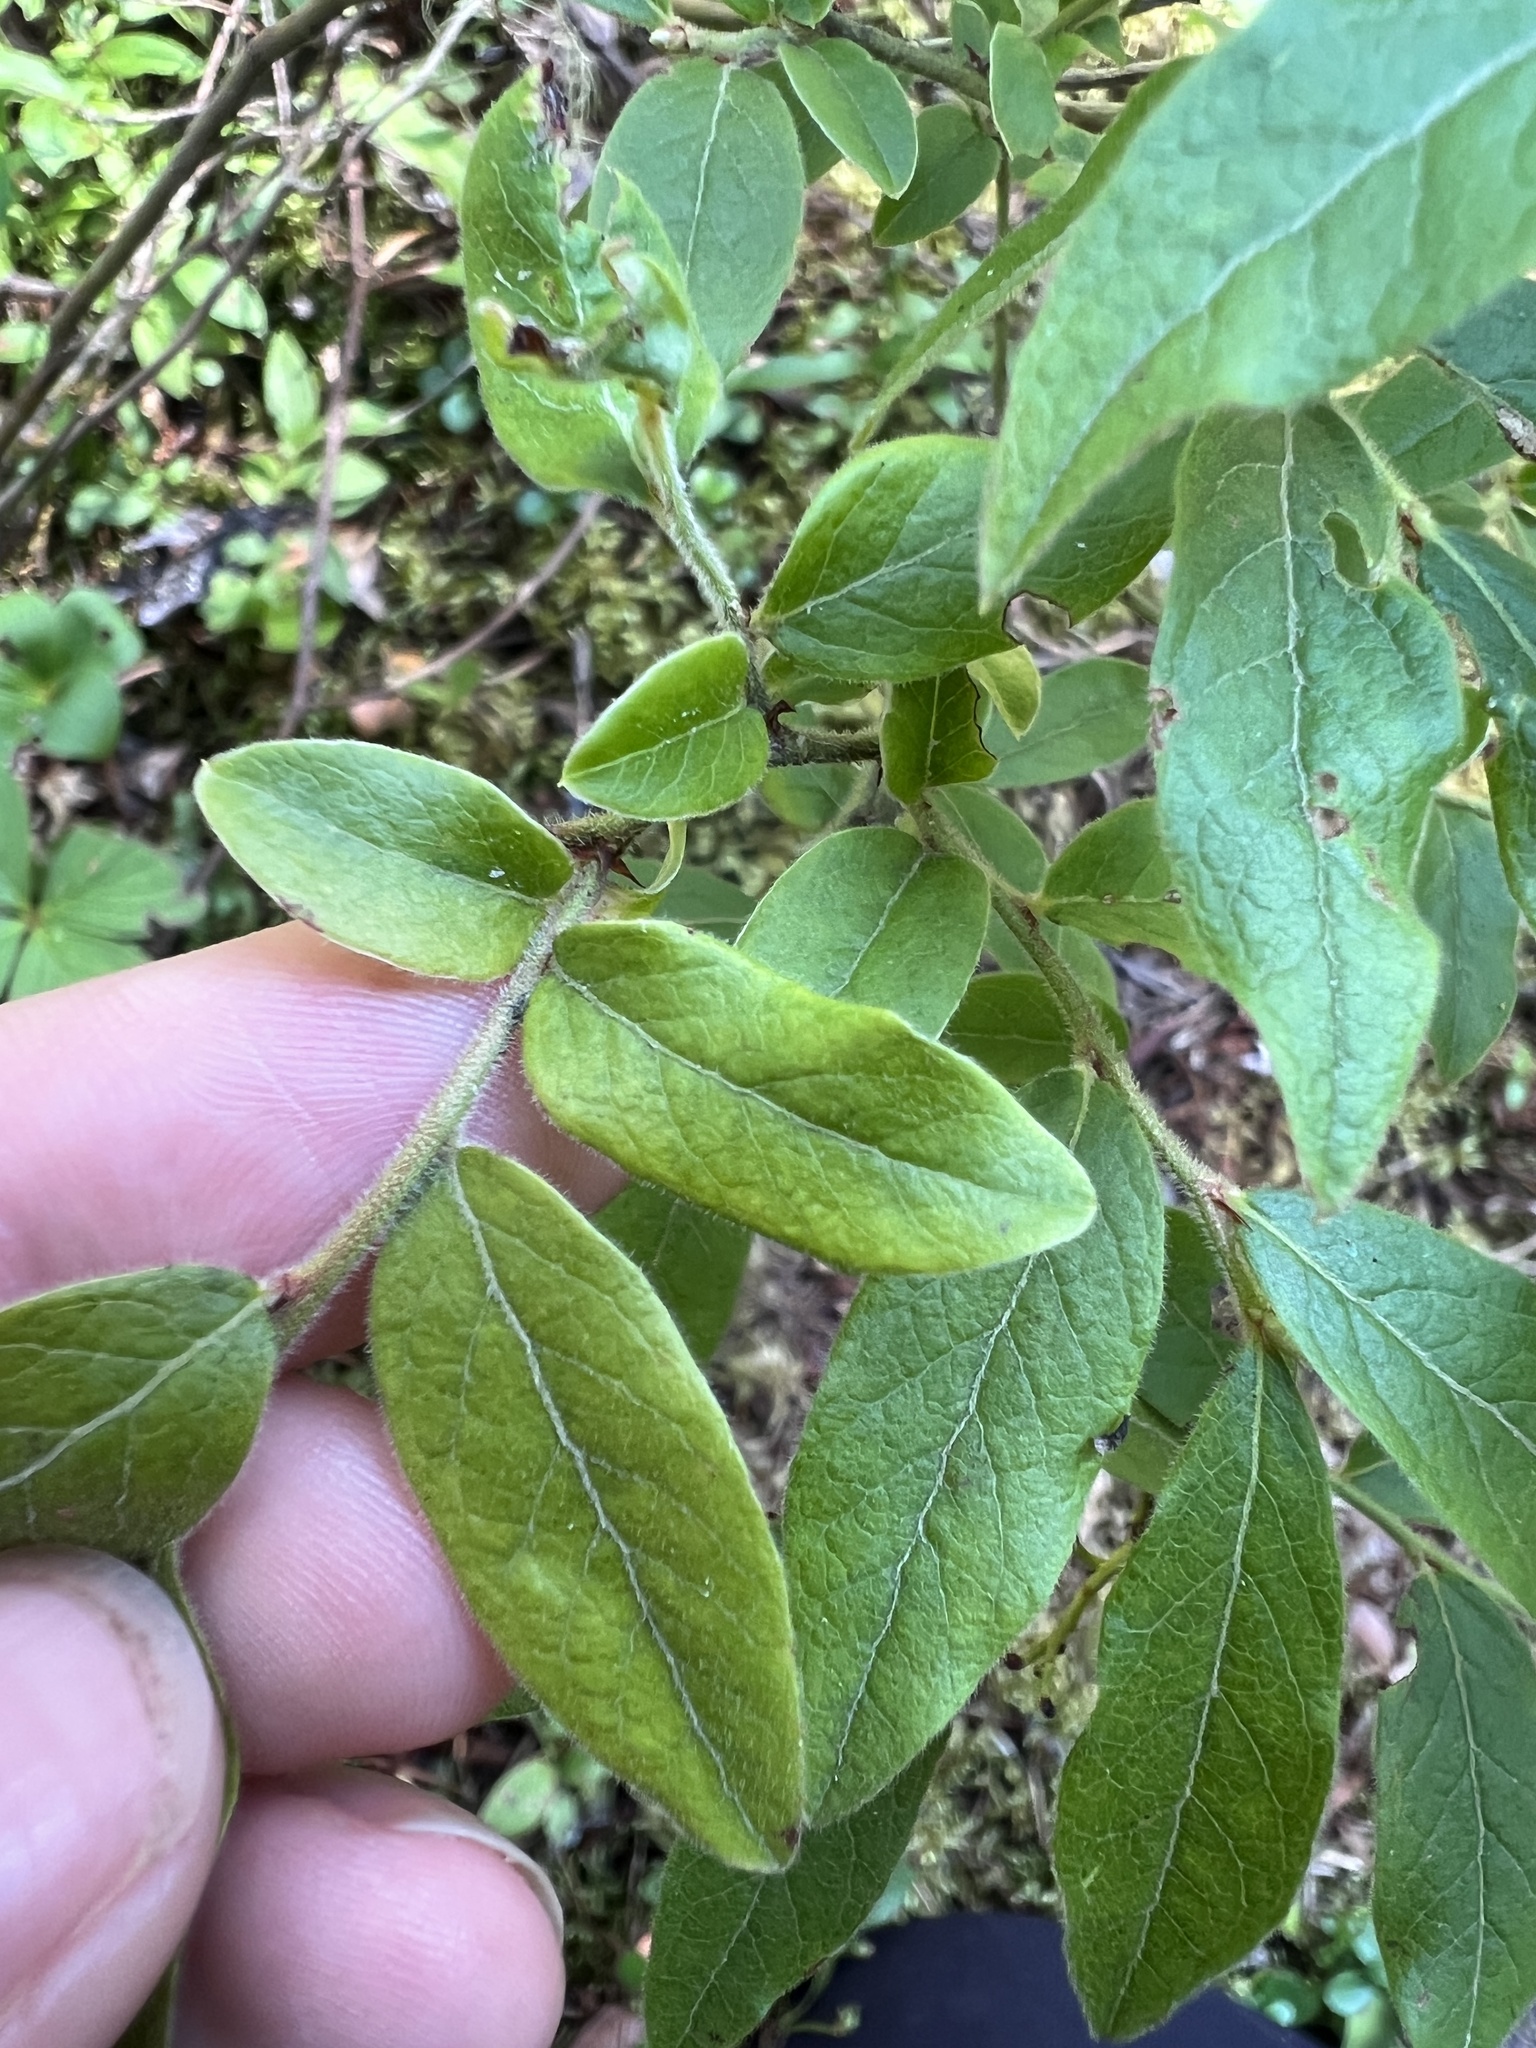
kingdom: Plantae
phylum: Tracheophyta
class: Magnoliopsida
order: Ericales
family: Ericaceae
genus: Vaccinium
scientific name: Vaccinium myrtilloides
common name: Canada blueberry
